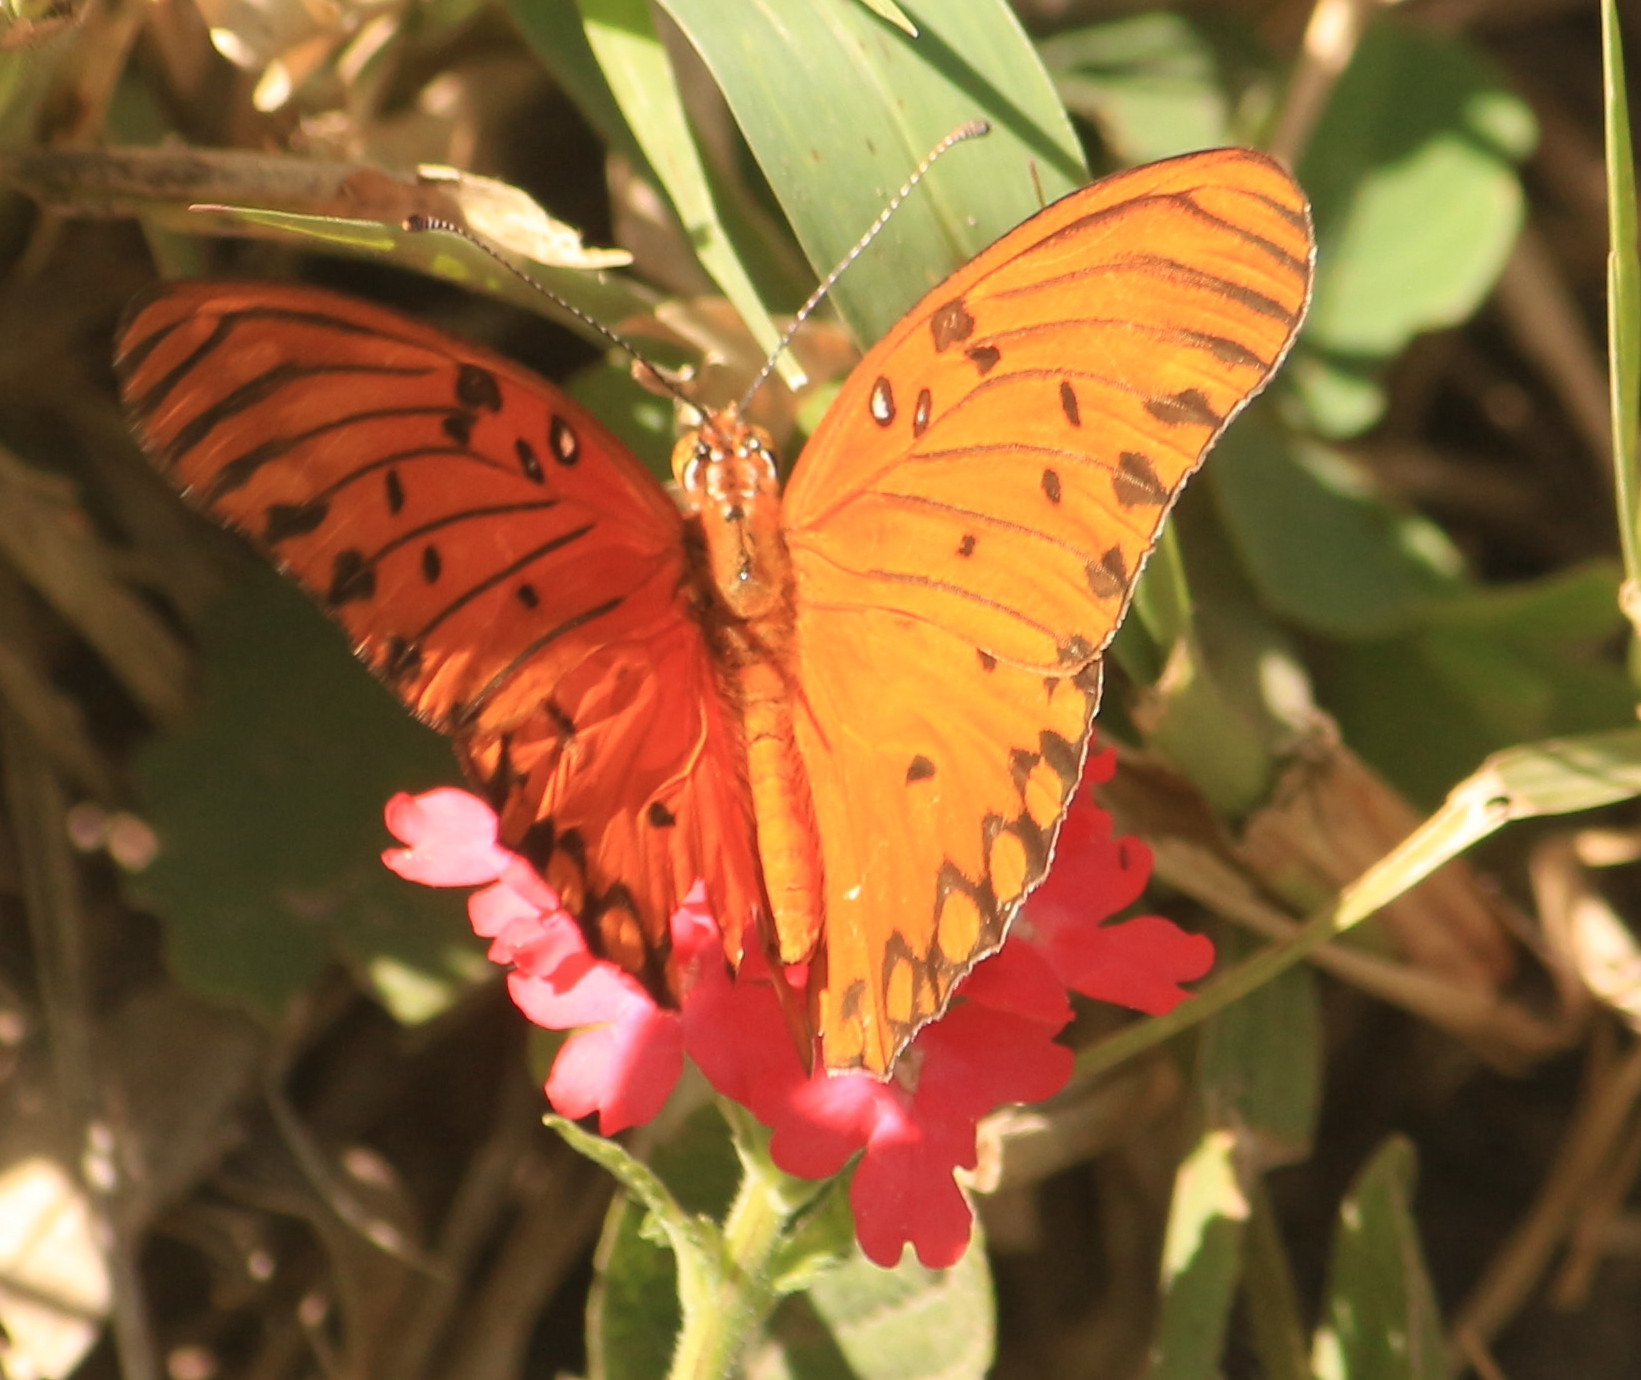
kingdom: Animalia
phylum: Arthropoda
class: Insecta
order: Lepidoptera
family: Nymphalidae
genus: Dione
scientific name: Dione vanillae
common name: Gulf fritillary
